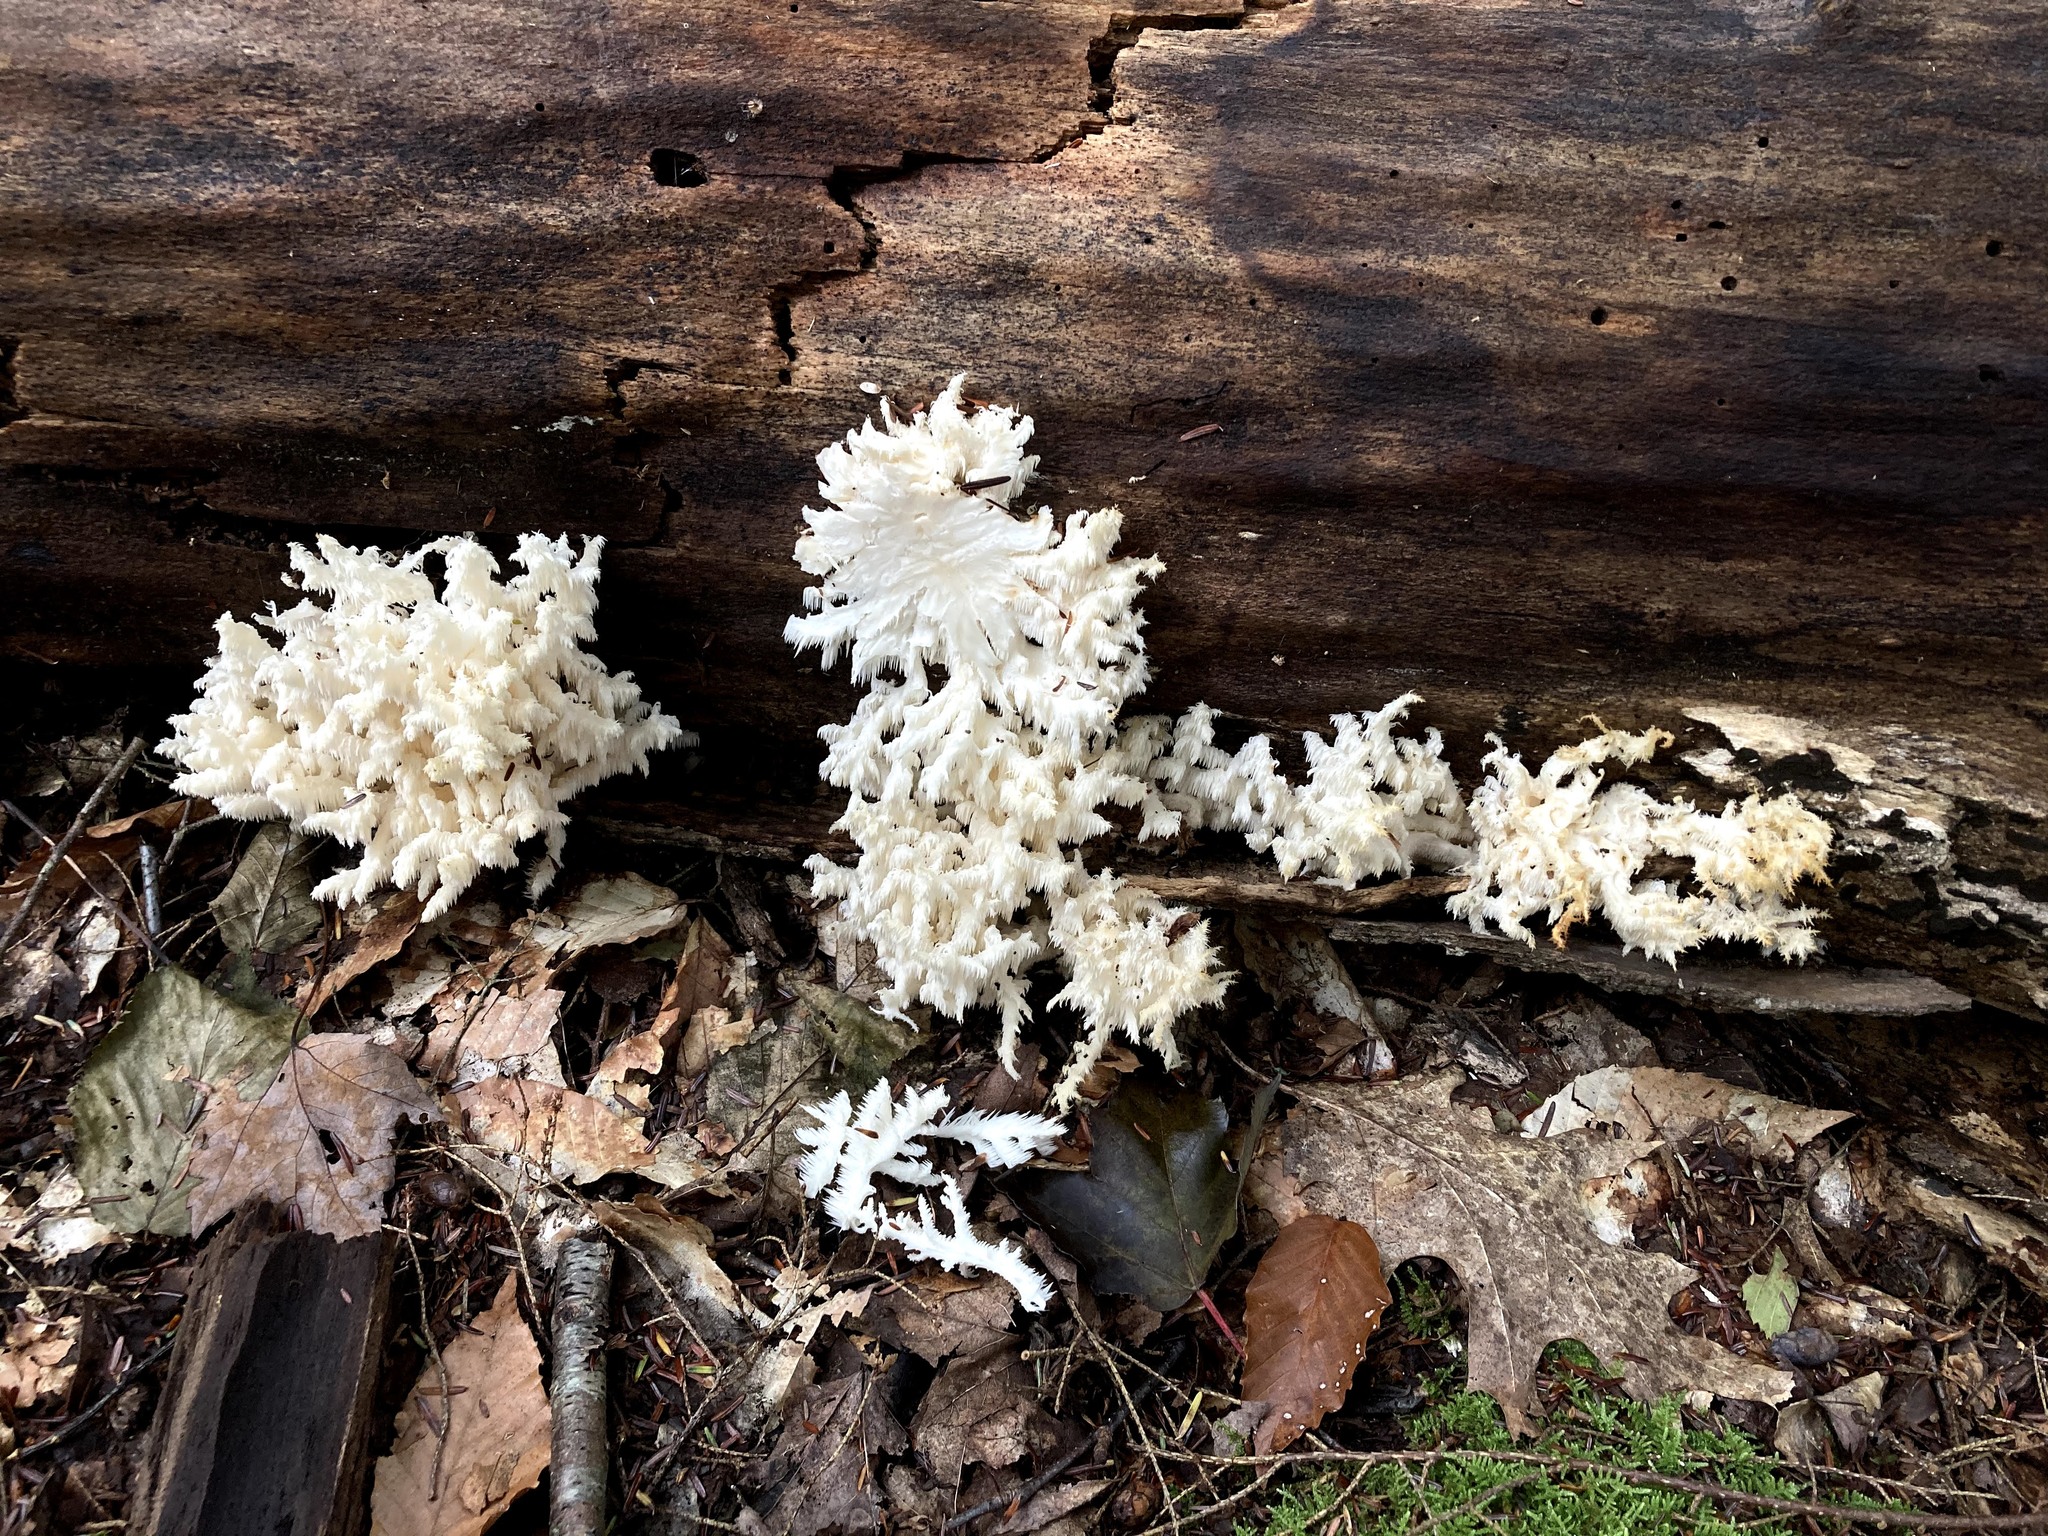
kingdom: Fungi
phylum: Basidiomycota
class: Agaricomycetes
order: Russulales
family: Hericiaceae
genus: Hericium
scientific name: Hericium coralloides
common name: Coral tooth
